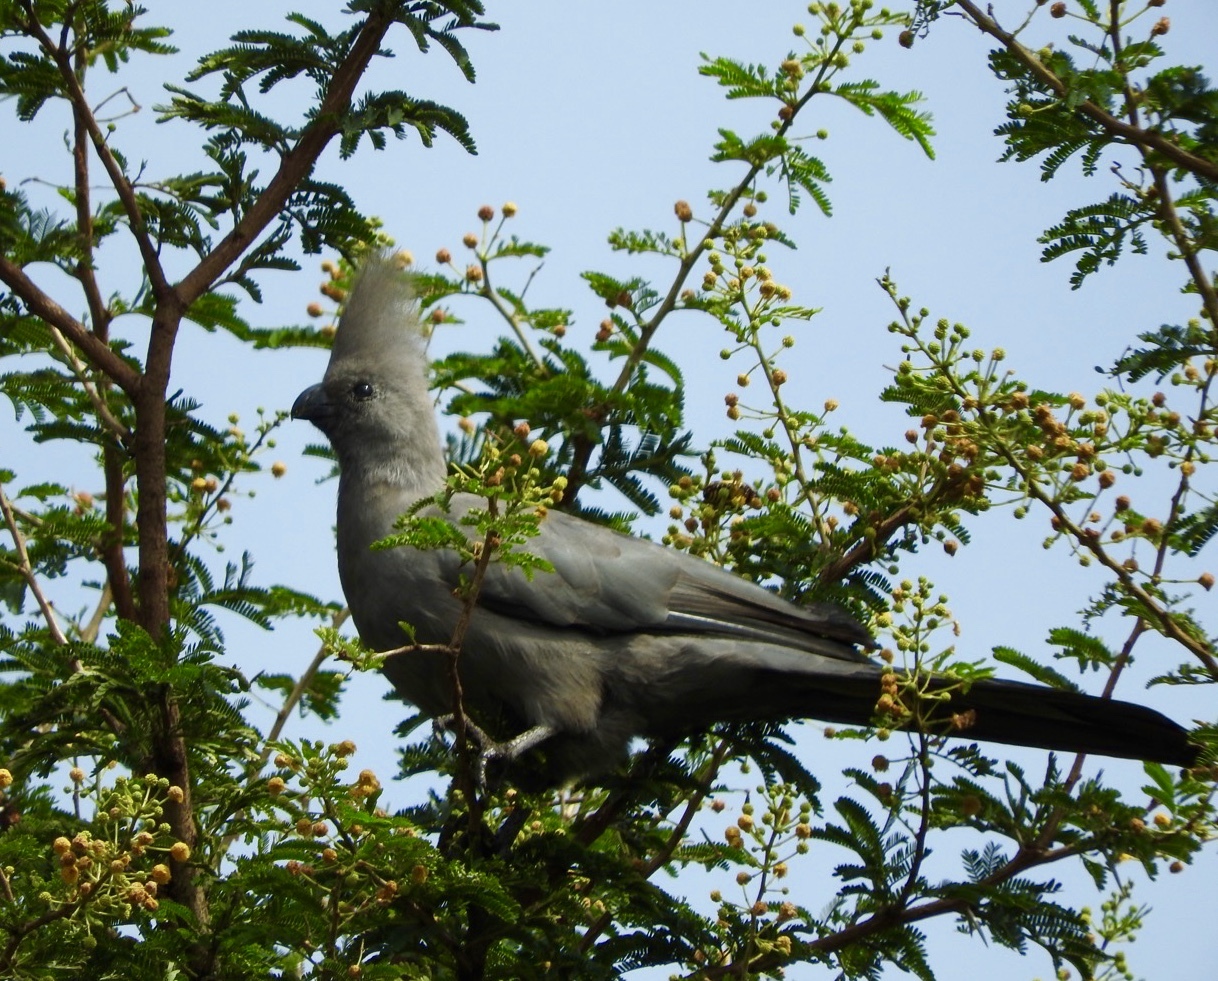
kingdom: Animalia
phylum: Chordata
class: Aves
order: Musophagiformes
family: Musophagidae
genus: Corythaixoides
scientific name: Corythaixoides concolor
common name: Grey go-away-bird
